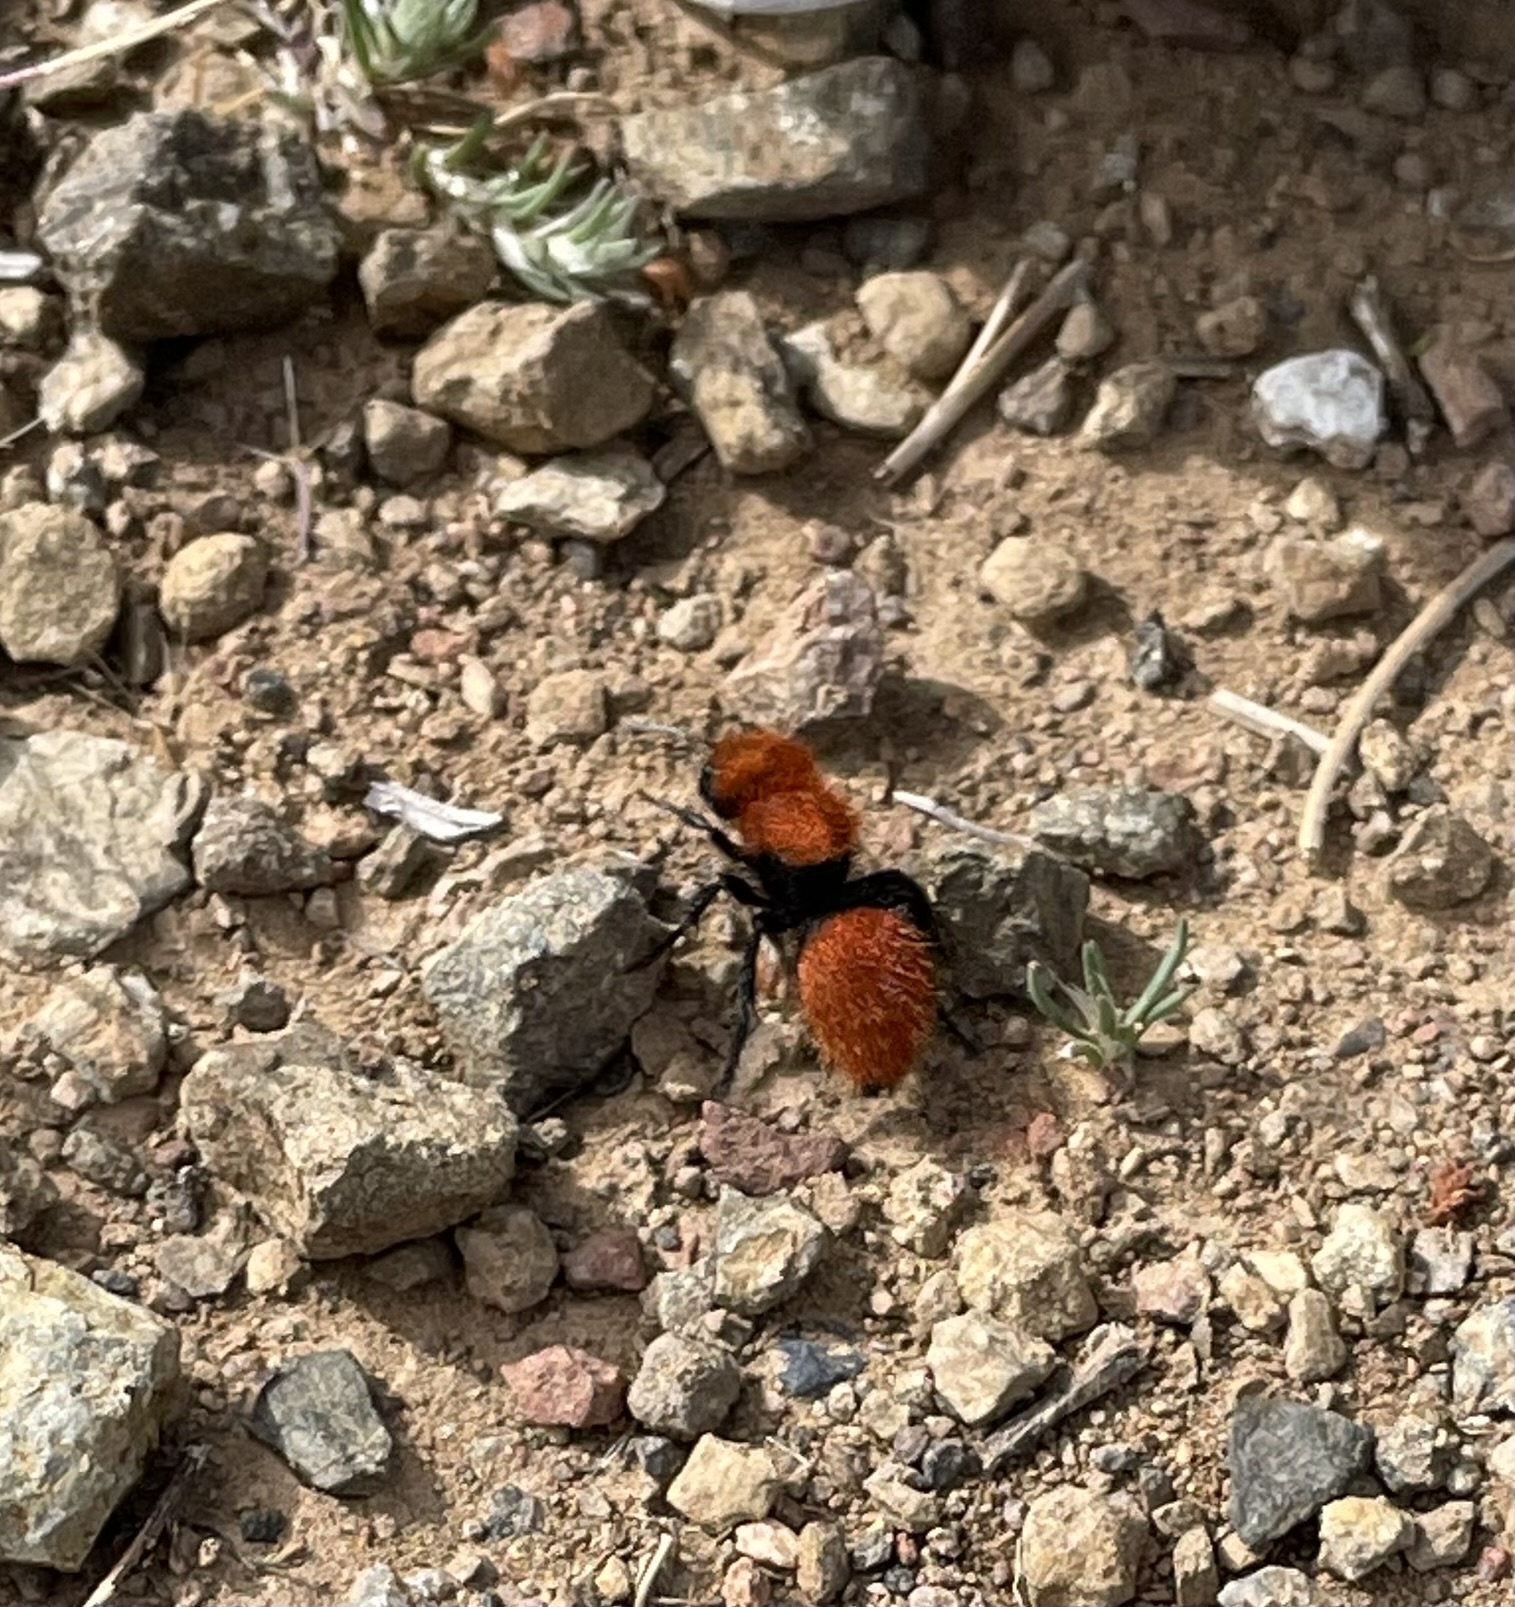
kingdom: Animalia
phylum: Arthropoda
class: Insecta
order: Hymenoptera
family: Mutillidae
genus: Dasymutilla
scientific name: Dasymutilla
